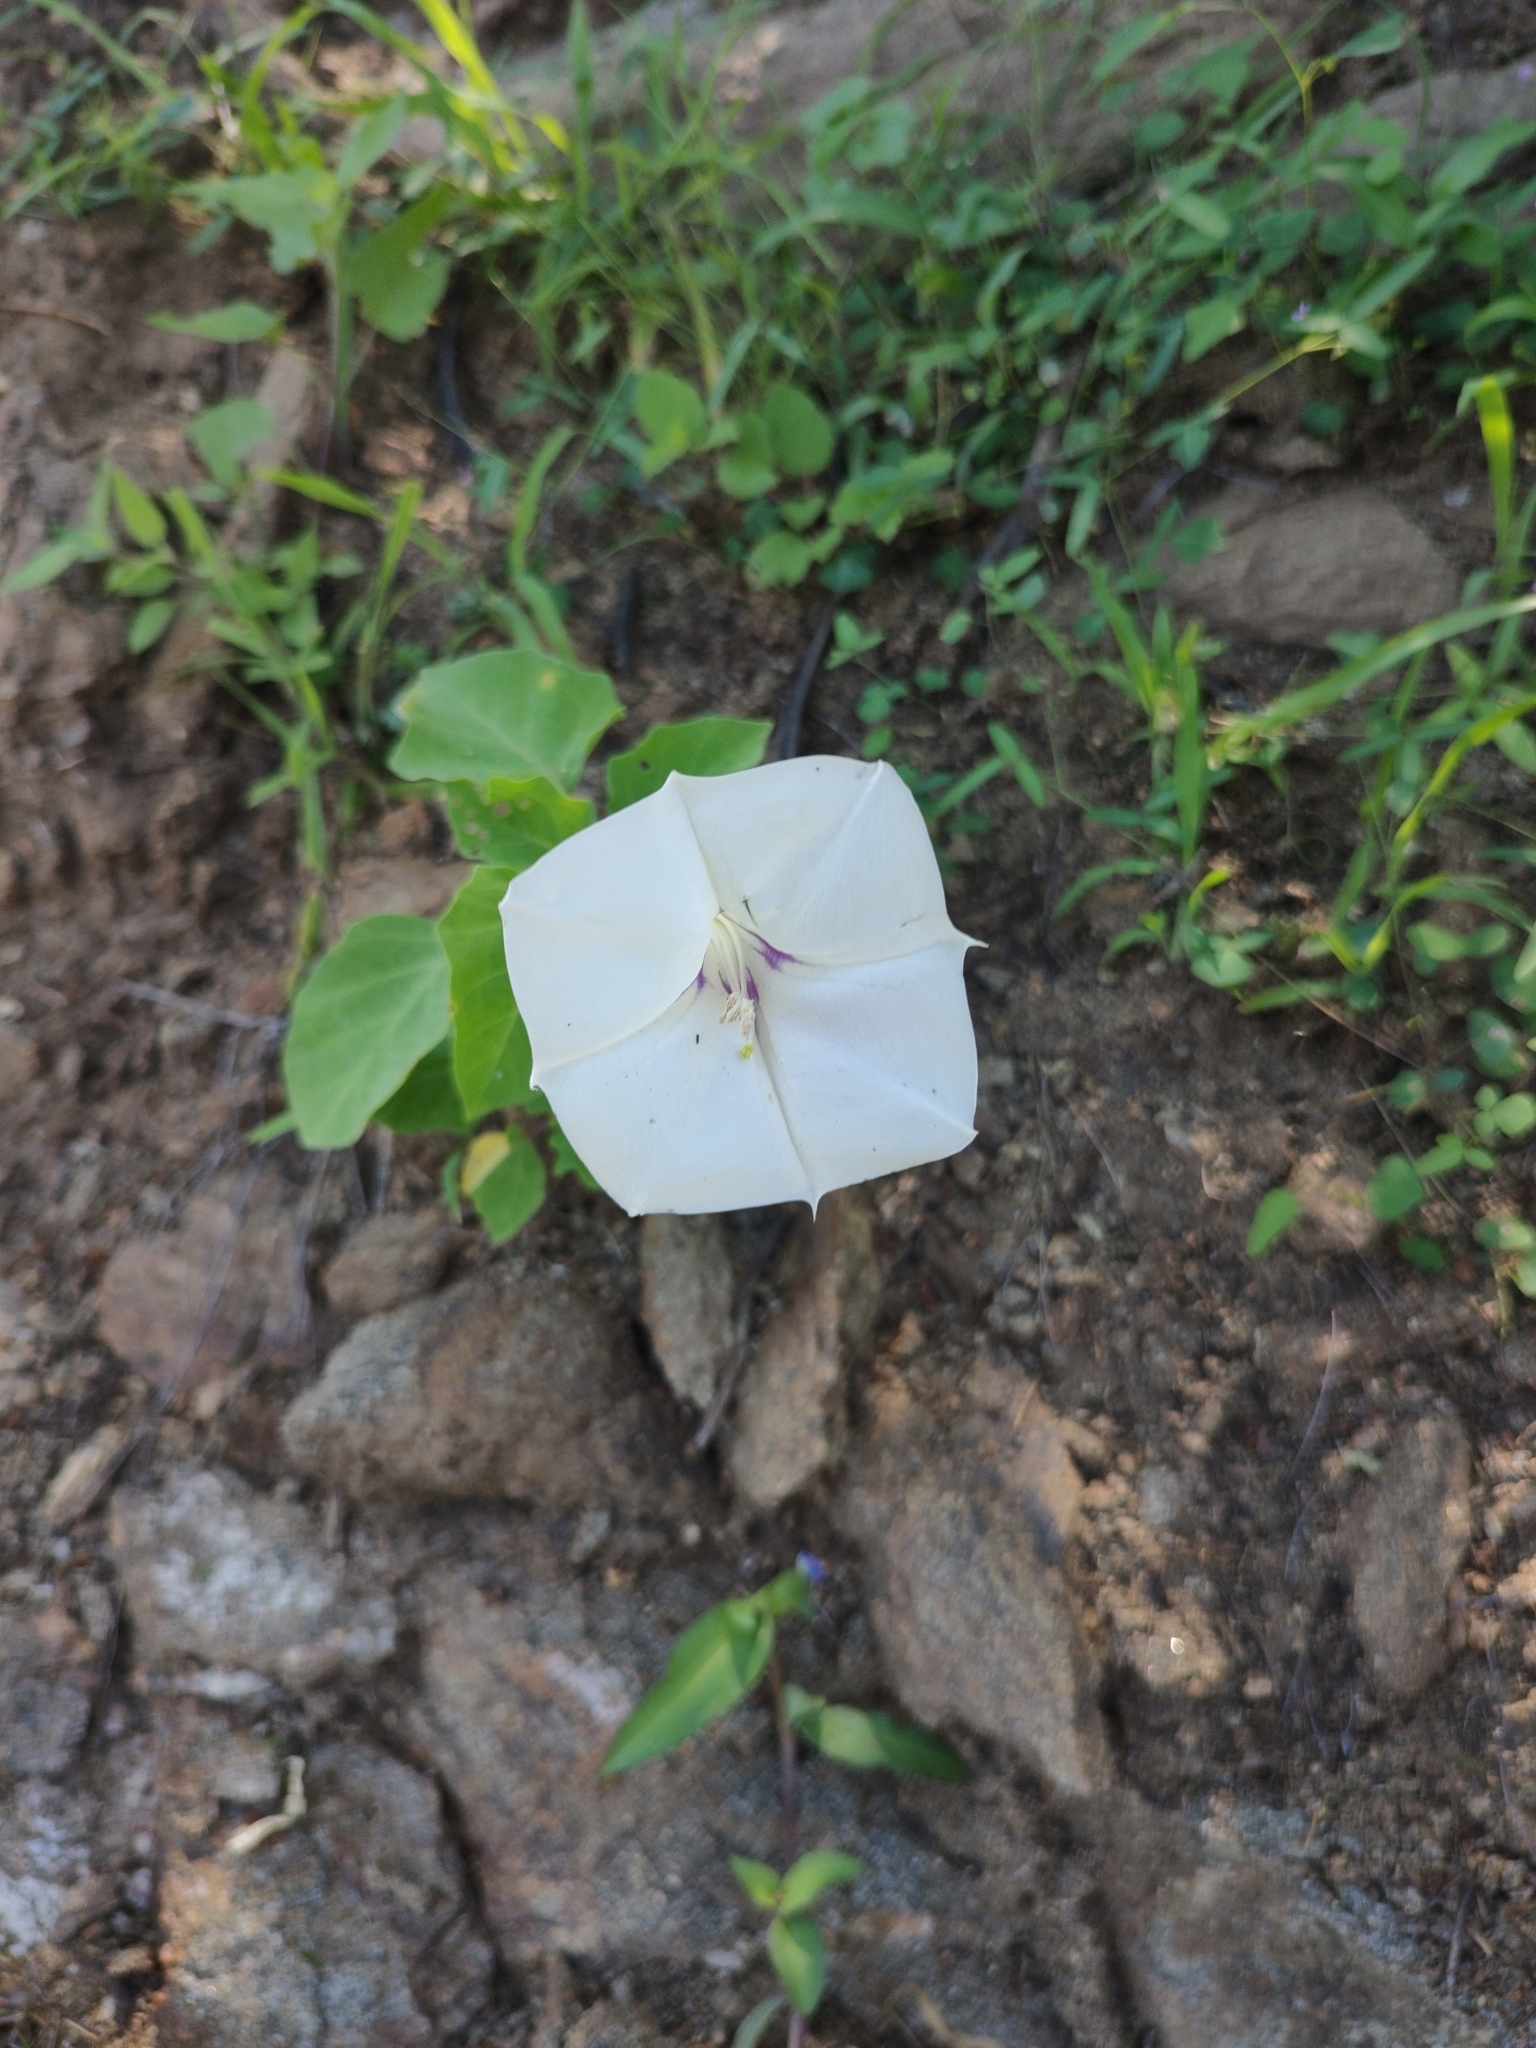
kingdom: Plantae
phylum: Tracheophyta
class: Magnoliopsida
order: Solanales
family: Solanaceae
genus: Datura
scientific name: Datura discolor
